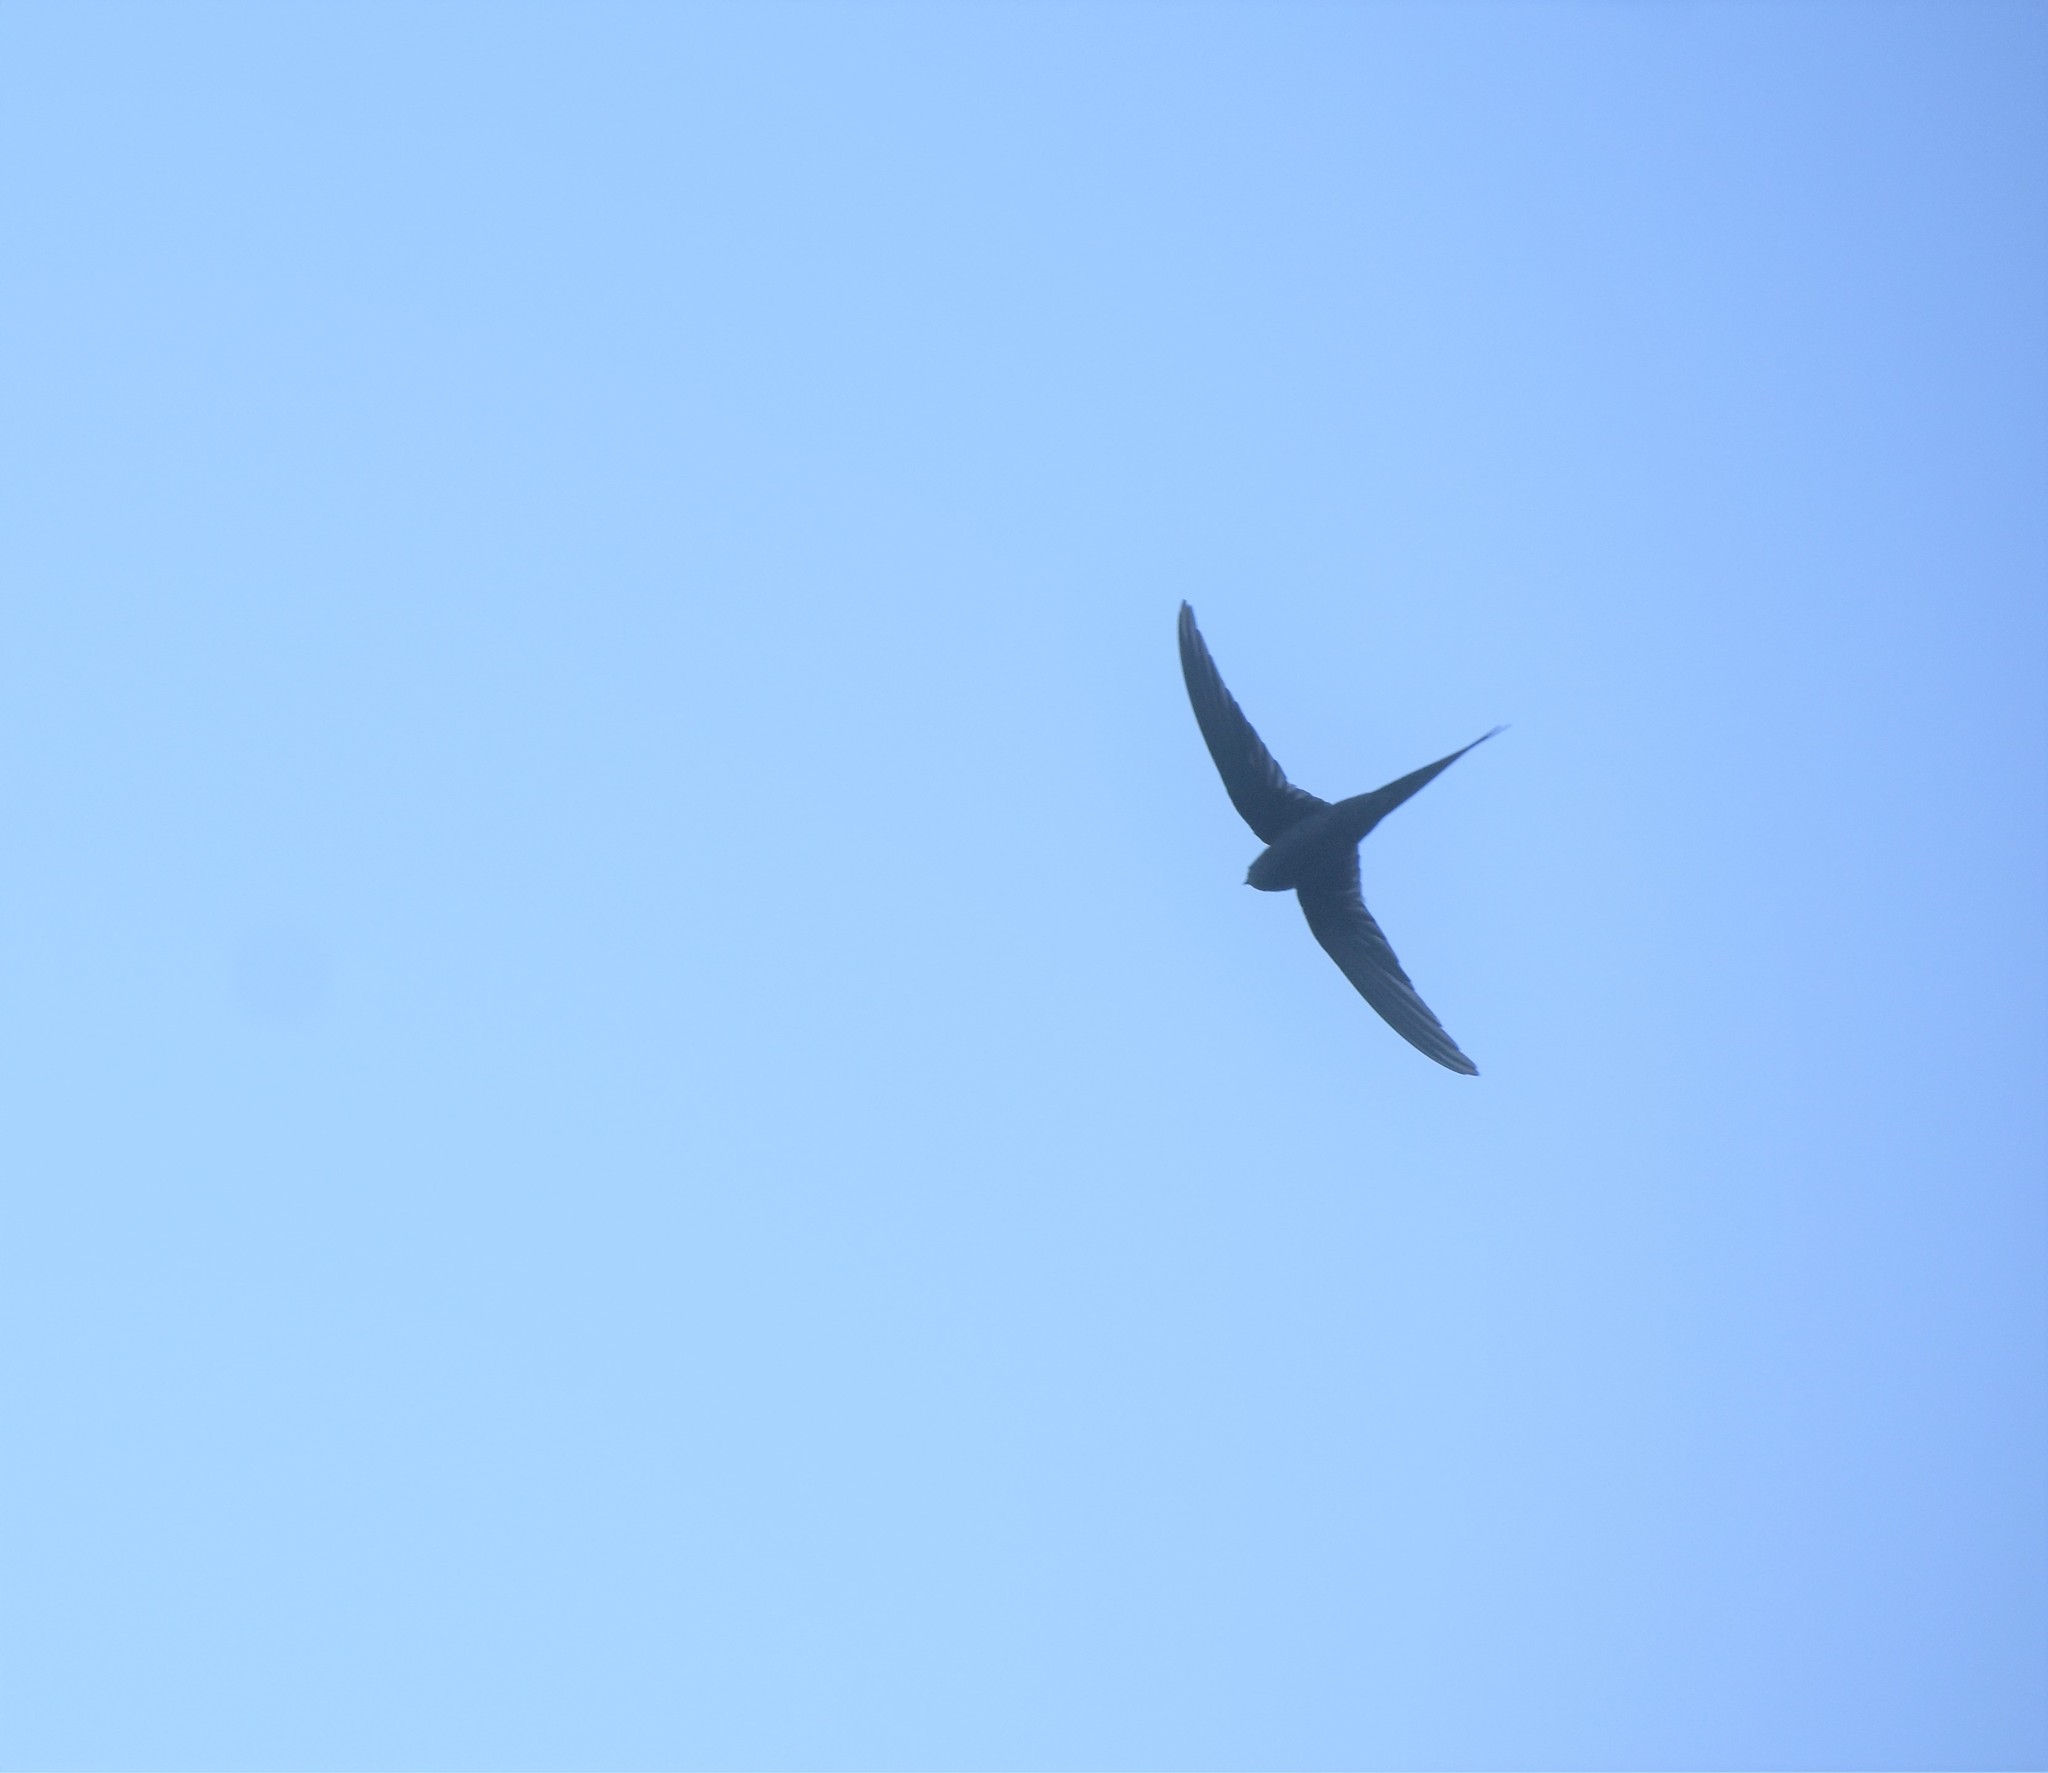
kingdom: Animalia
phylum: Chordata
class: Aves
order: Apodiformes
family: Apodidae
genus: Cypsiurus
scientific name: Cypsiurus parvus
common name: African palm swift
